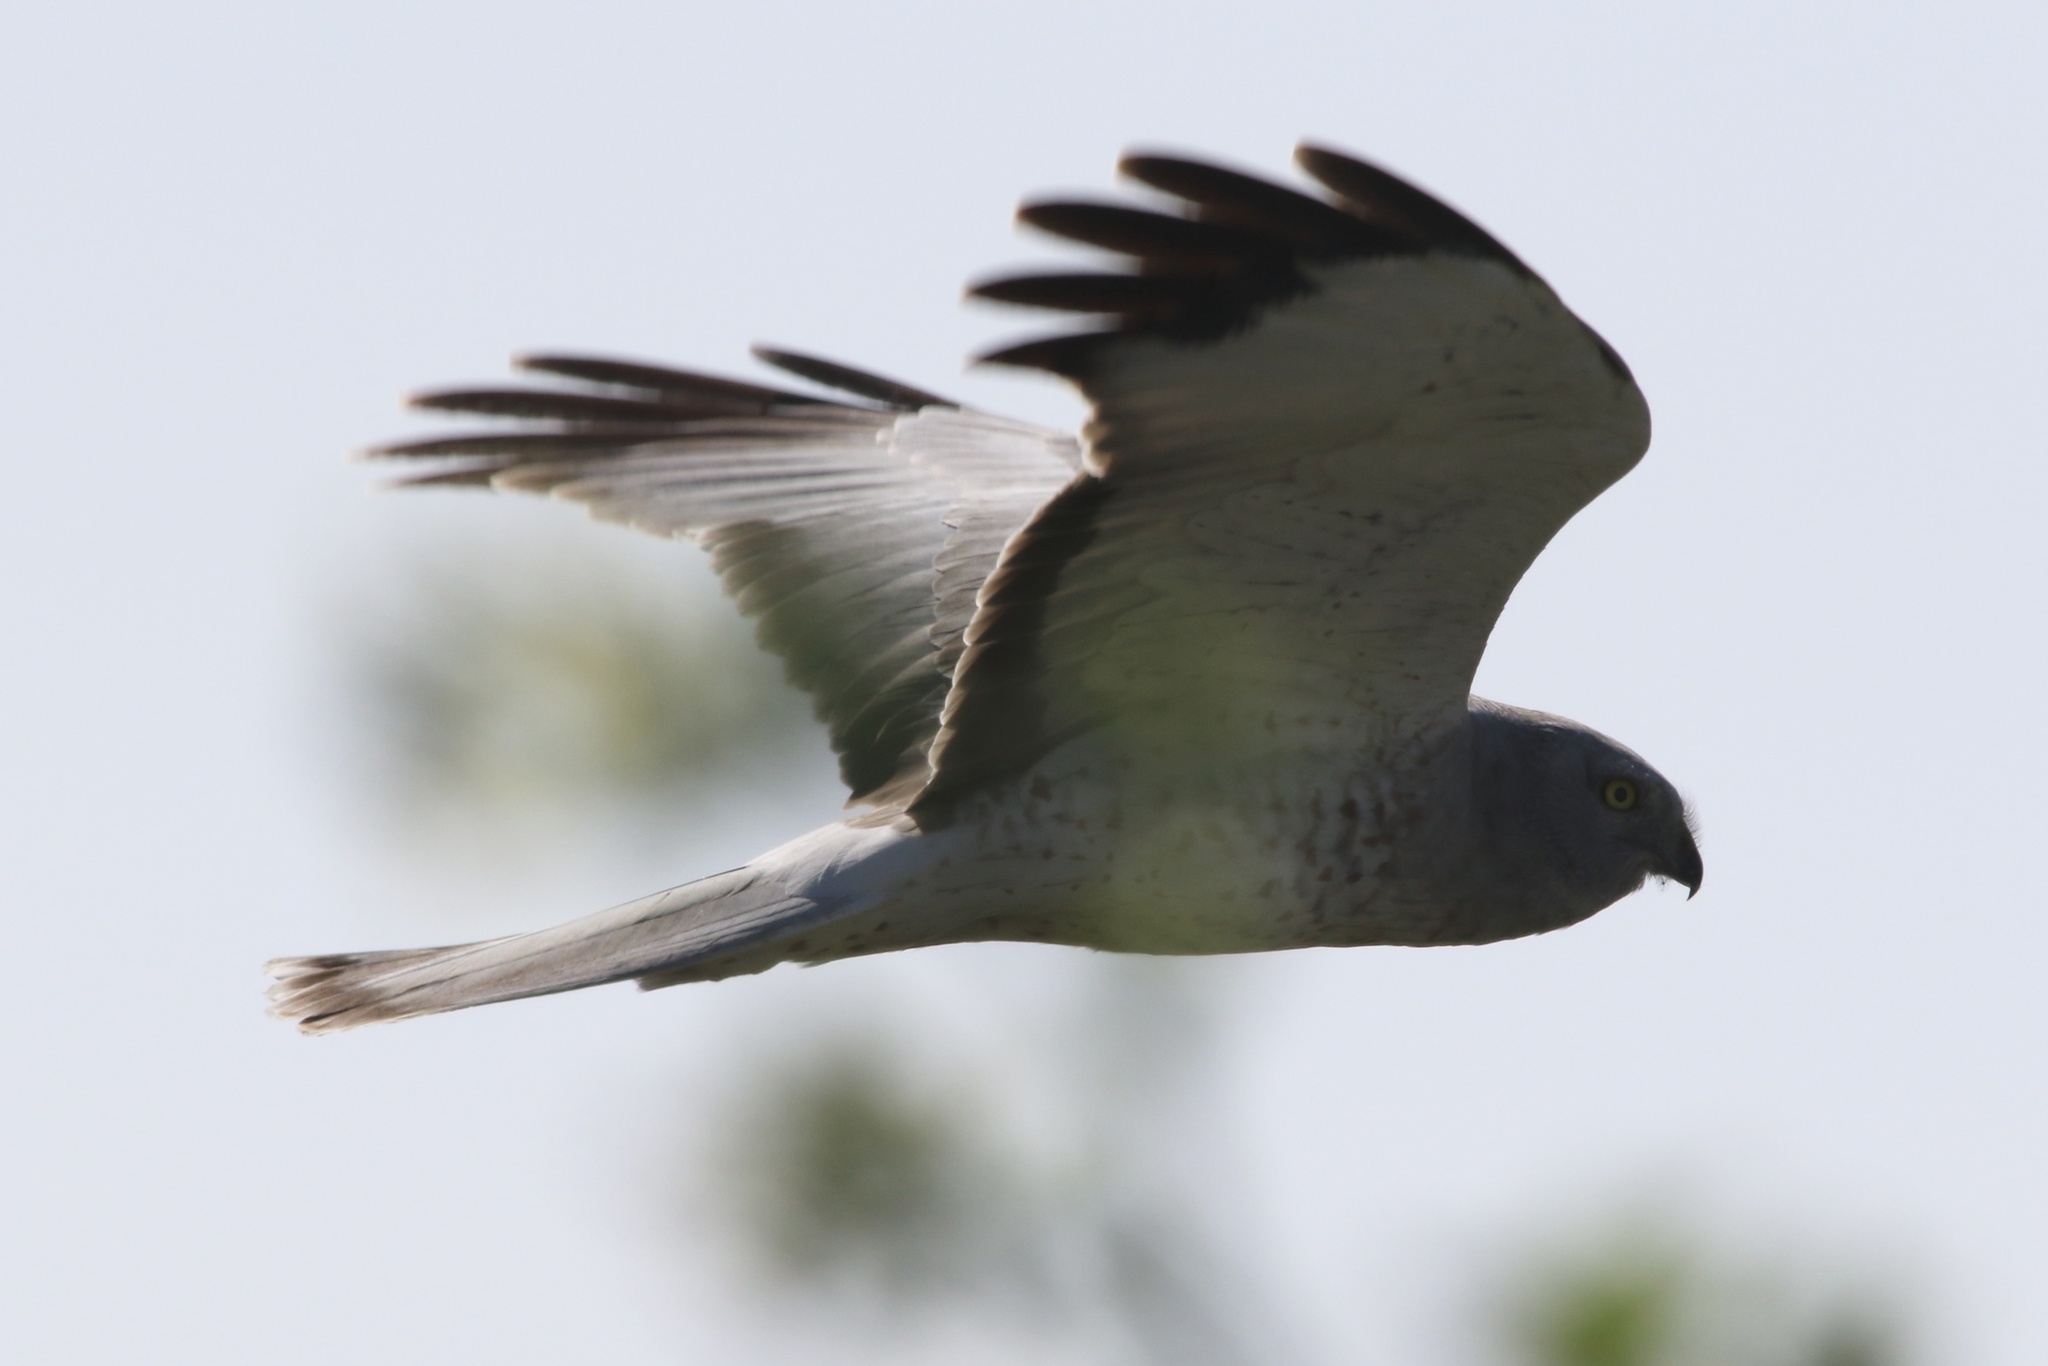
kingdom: Animalia
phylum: Chordata
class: Aves
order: Accipitriformes
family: Accipitridae
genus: Circus
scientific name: Circus cyaneus
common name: Hen harrier
